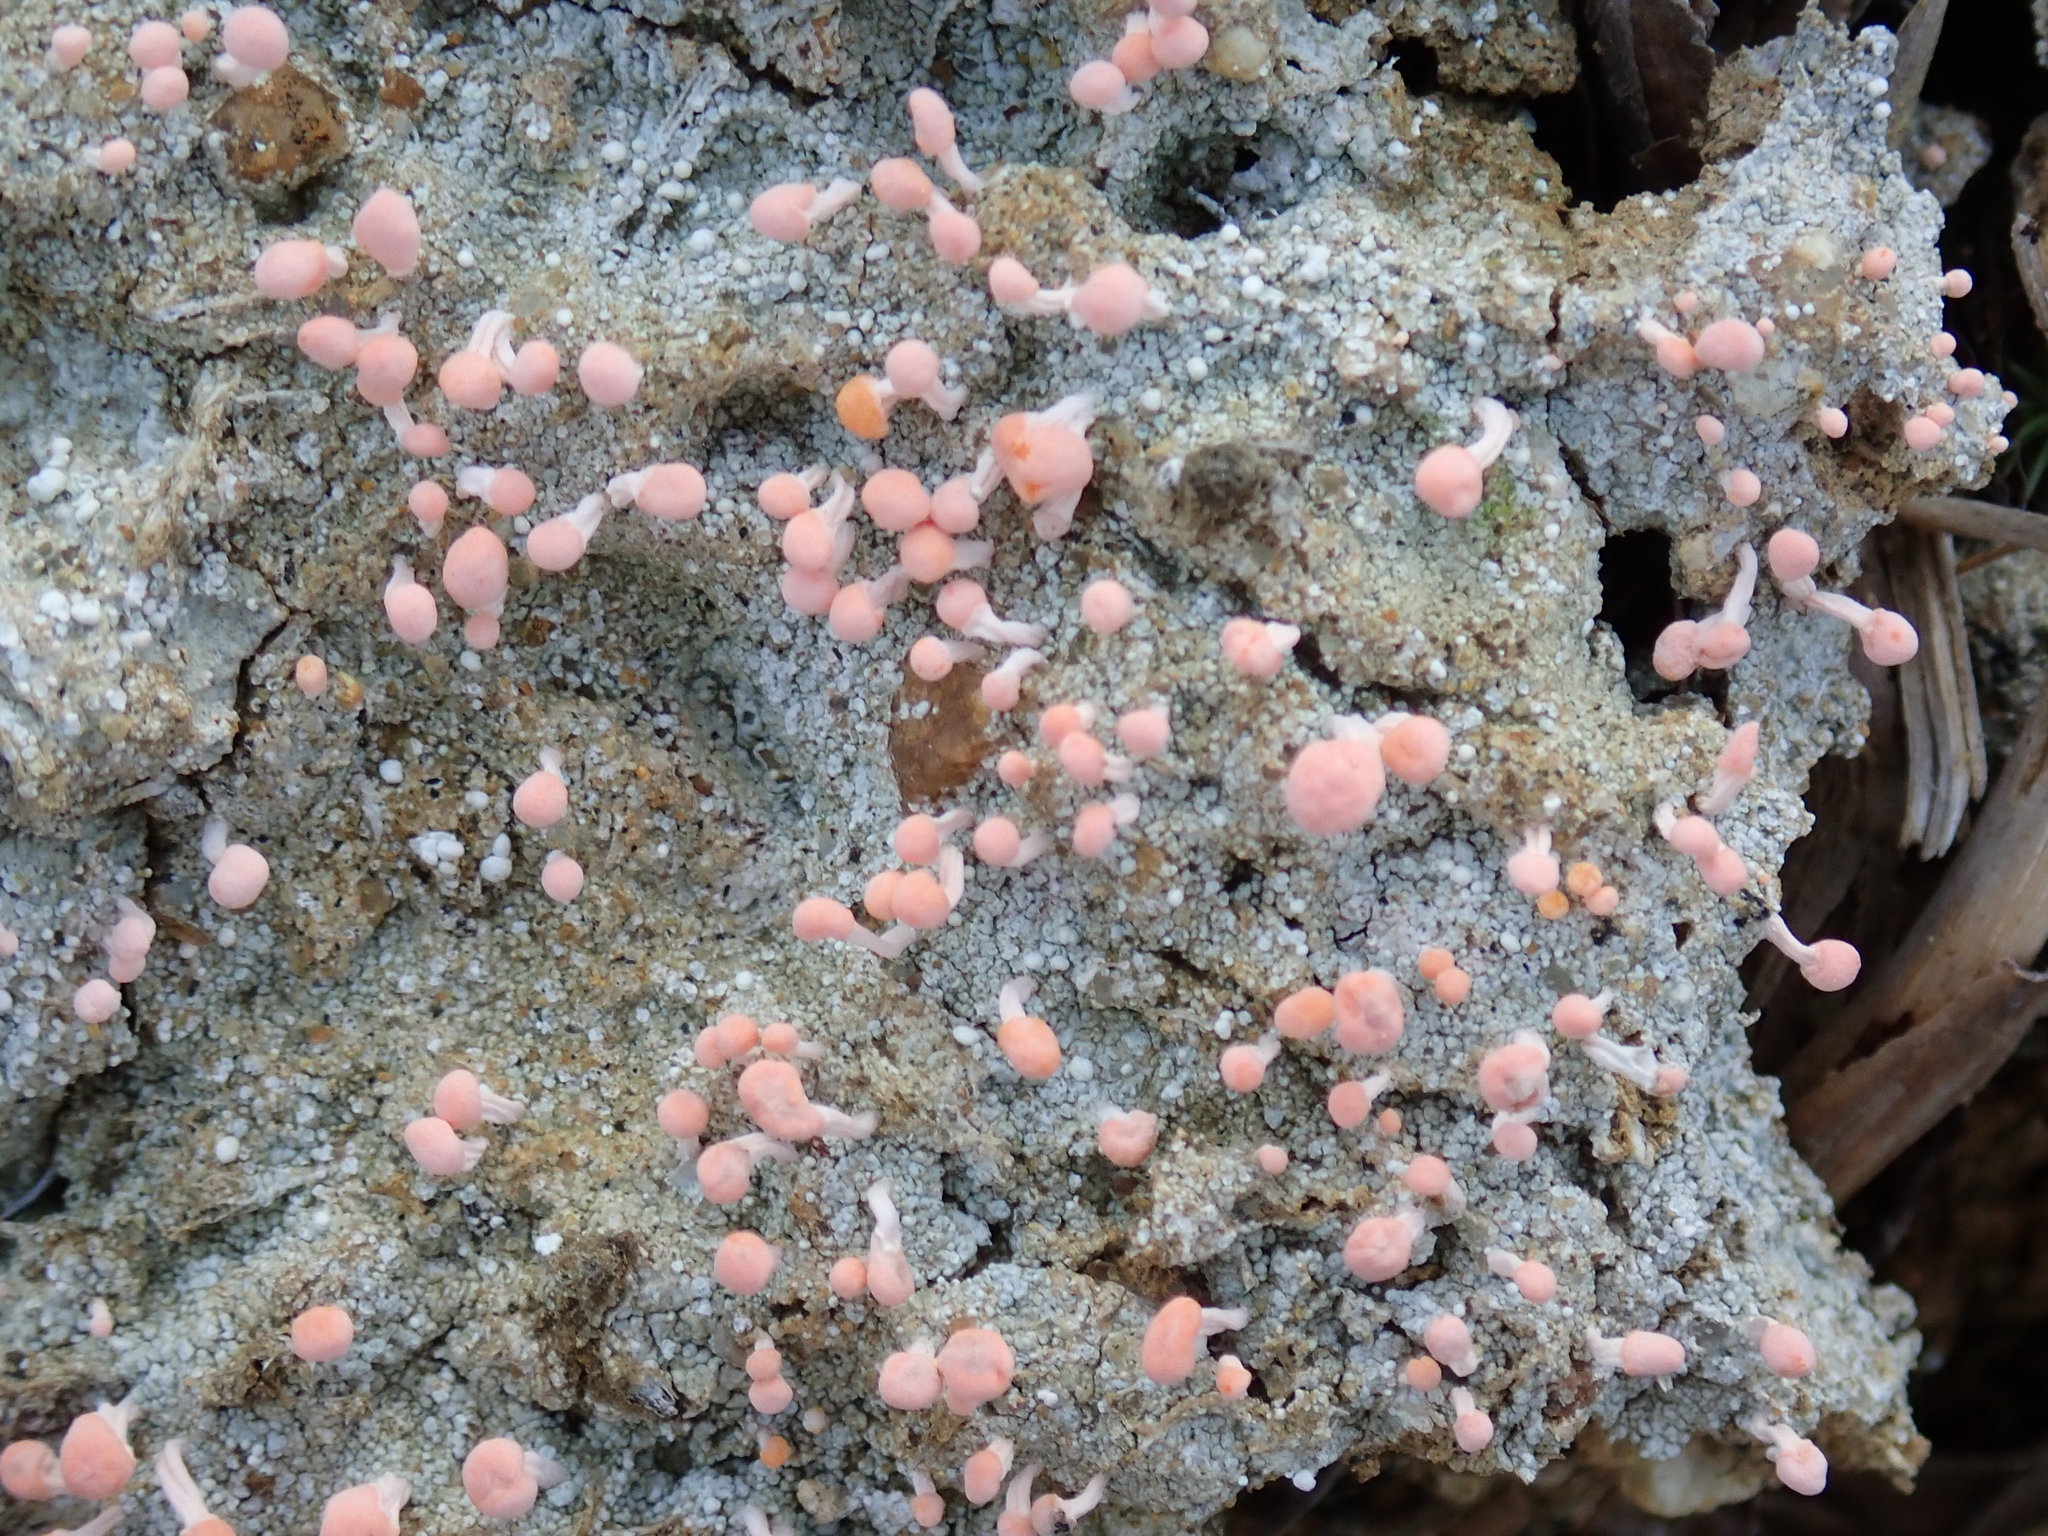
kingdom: Fungi
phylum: Ascomycota
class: Lecanoromycetes
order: Pertusariales
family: Icmadophilaceae
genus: Dibaeis
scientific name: Dibaeis baeomyces
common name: Pink earth lichen
